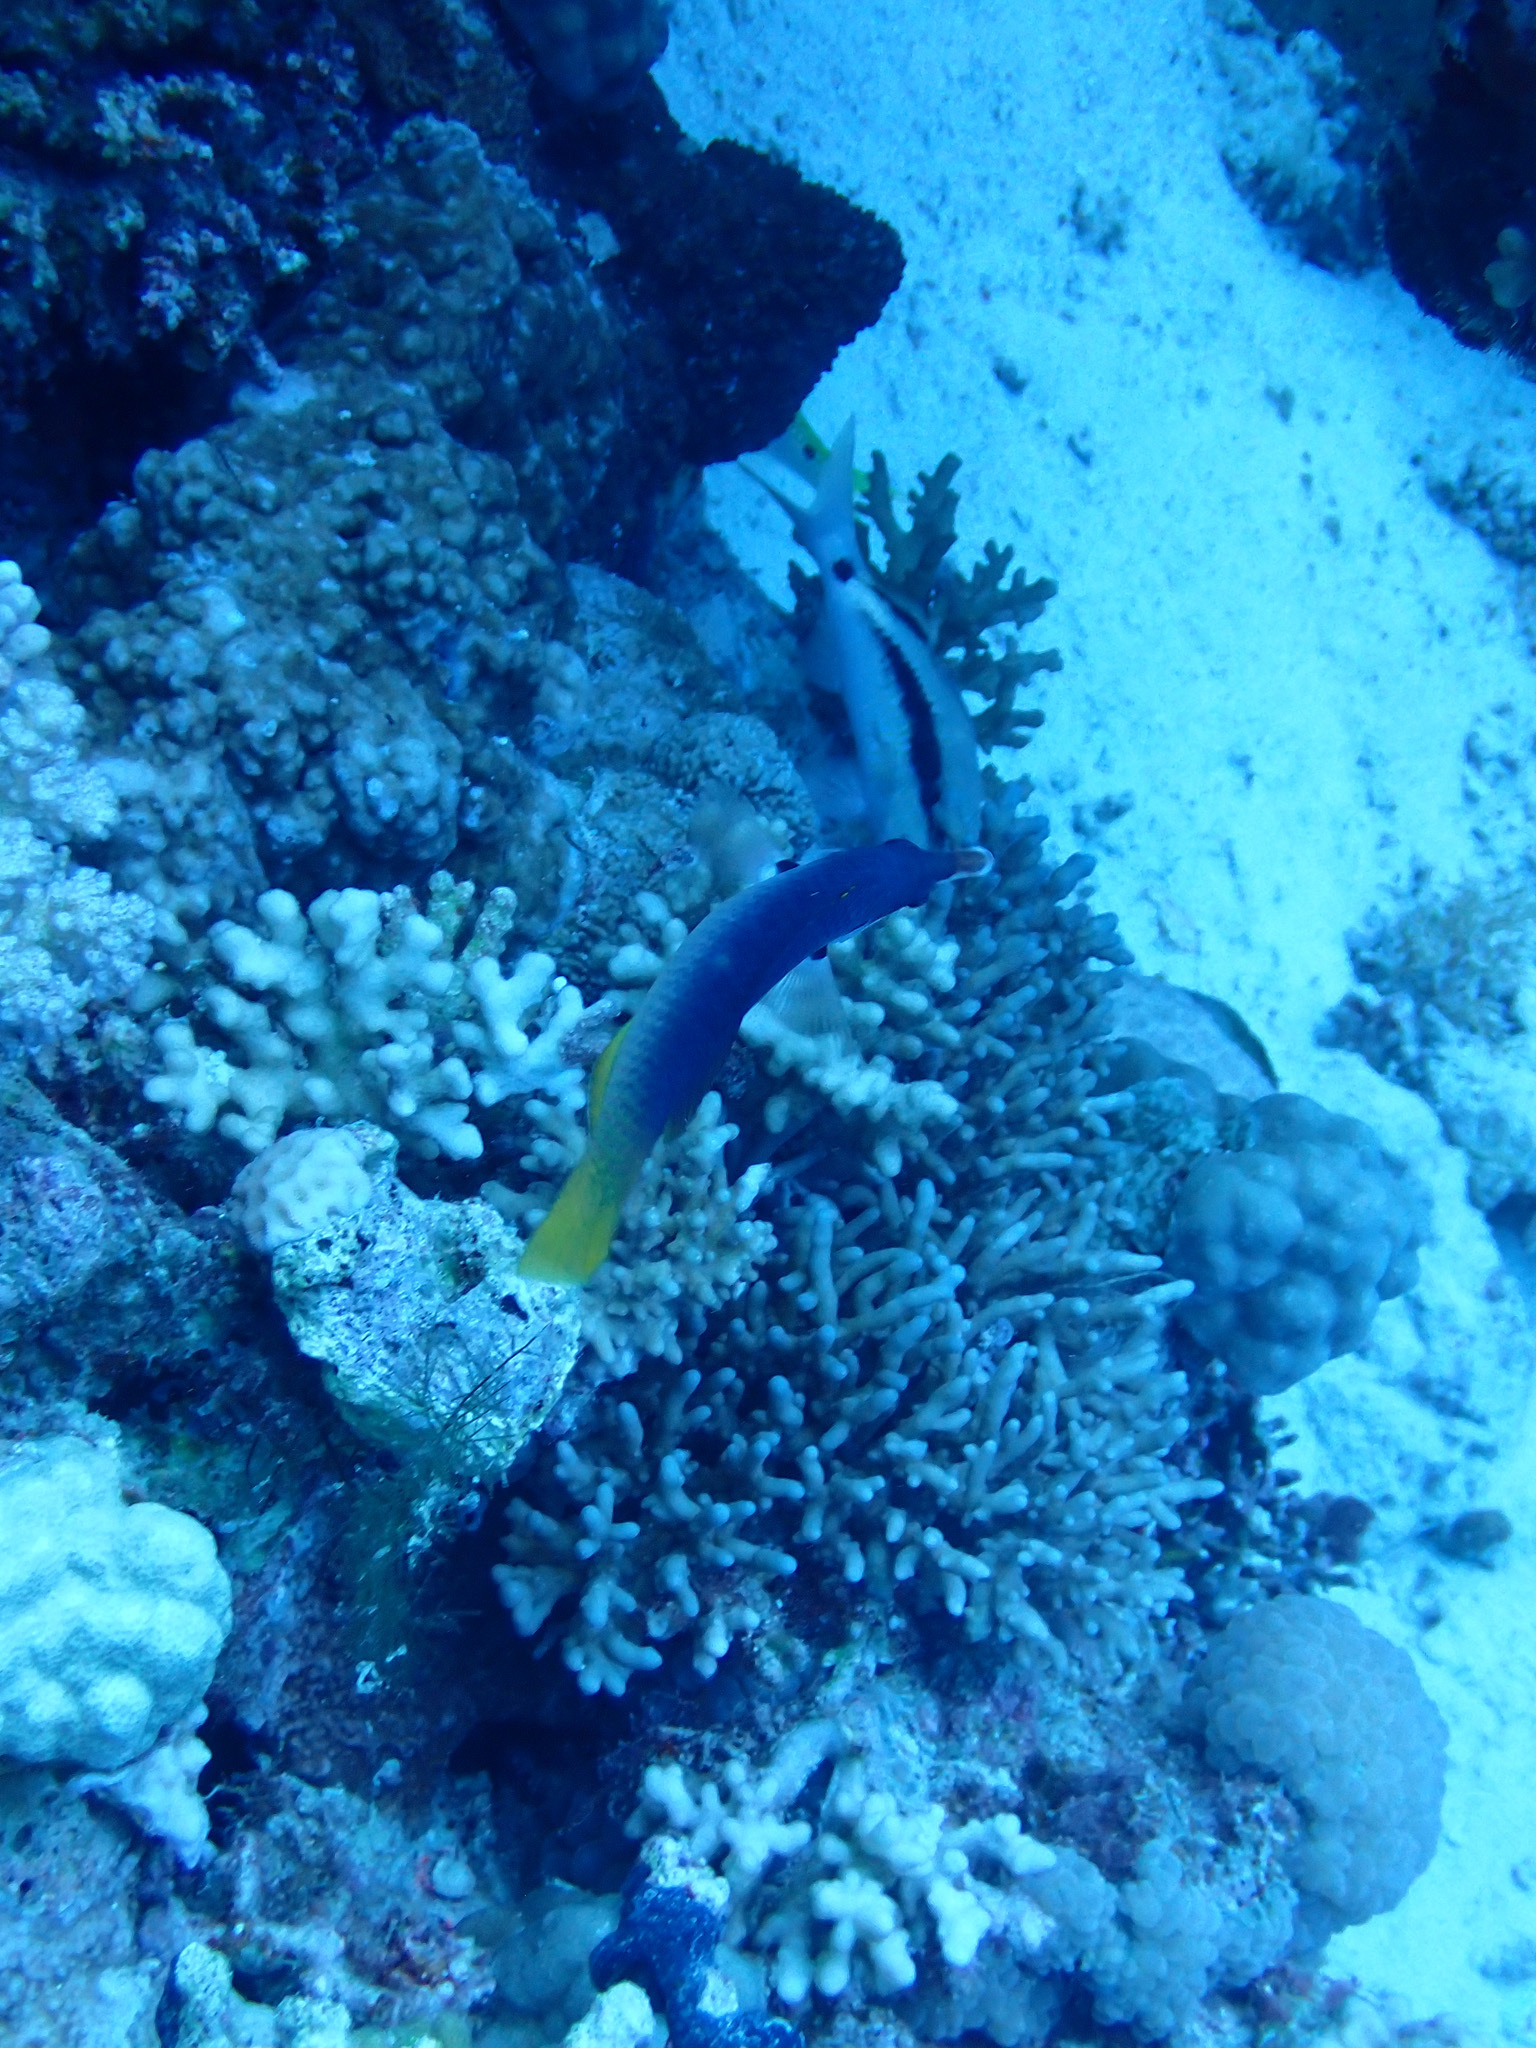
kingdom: Animalia
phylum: Chordata
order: Perciformes
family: Labridae
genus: Gomphosus
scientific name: Gomphosus klunzingeri
